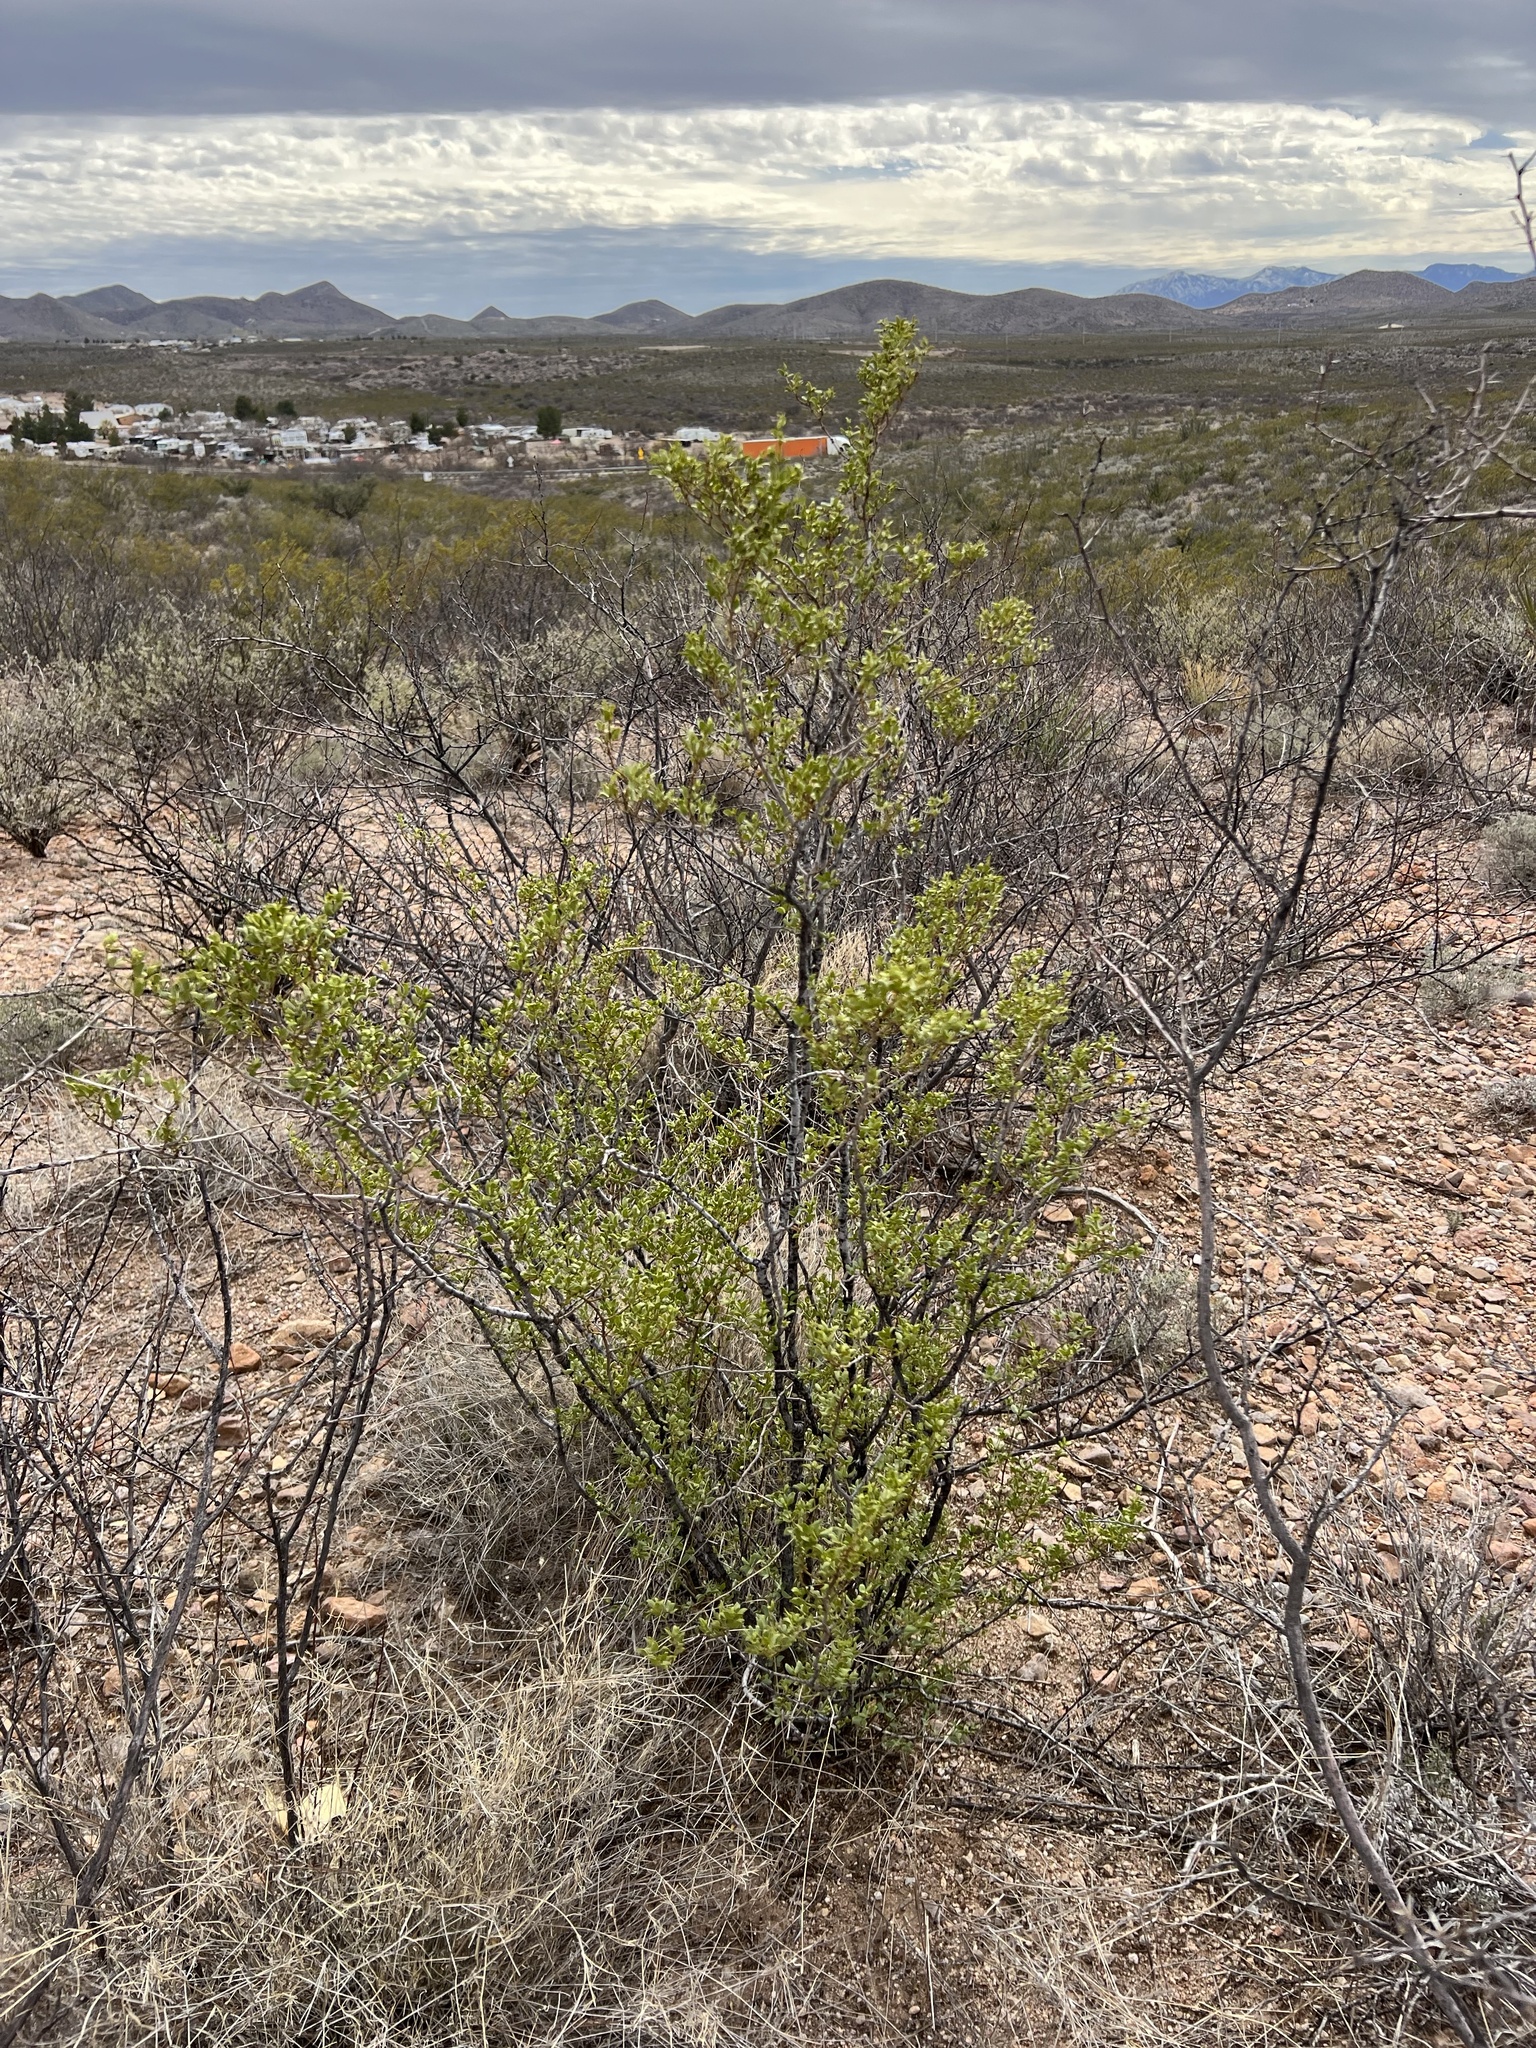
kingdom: Plantae
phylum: Tracheophyta
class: Magnoliopsida
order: Zygophyllales
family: Zygophyllaceae
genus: Larrea
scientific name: Larrea tridentata
